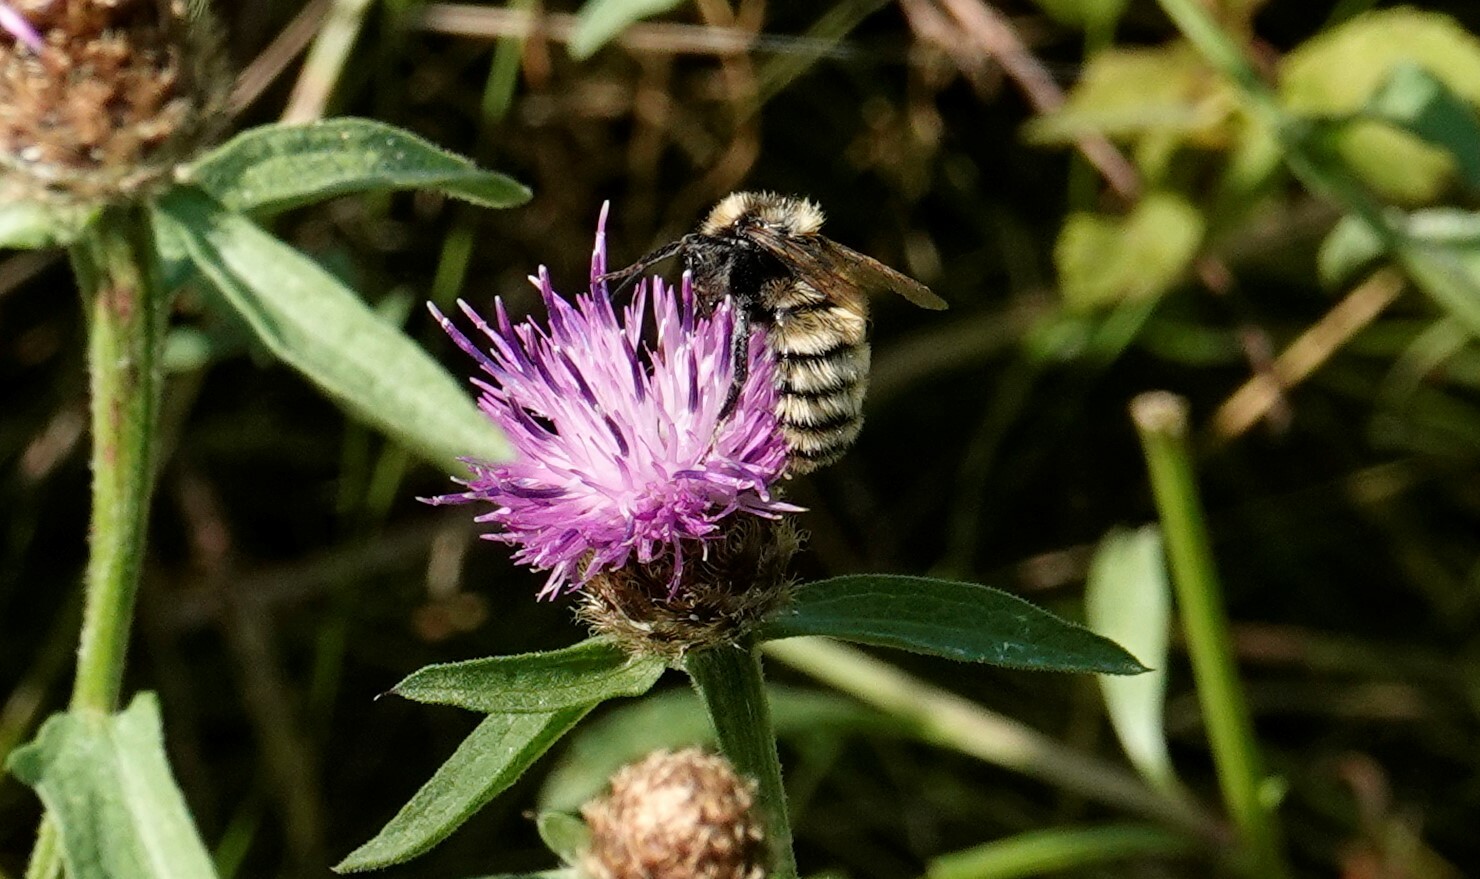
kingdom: Animalia
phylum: Arthropoda
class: Insecta
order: Hymenoptera
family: Apidae
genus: Bombus
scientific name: Bombus borealis
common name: Northern amber bumble bee
